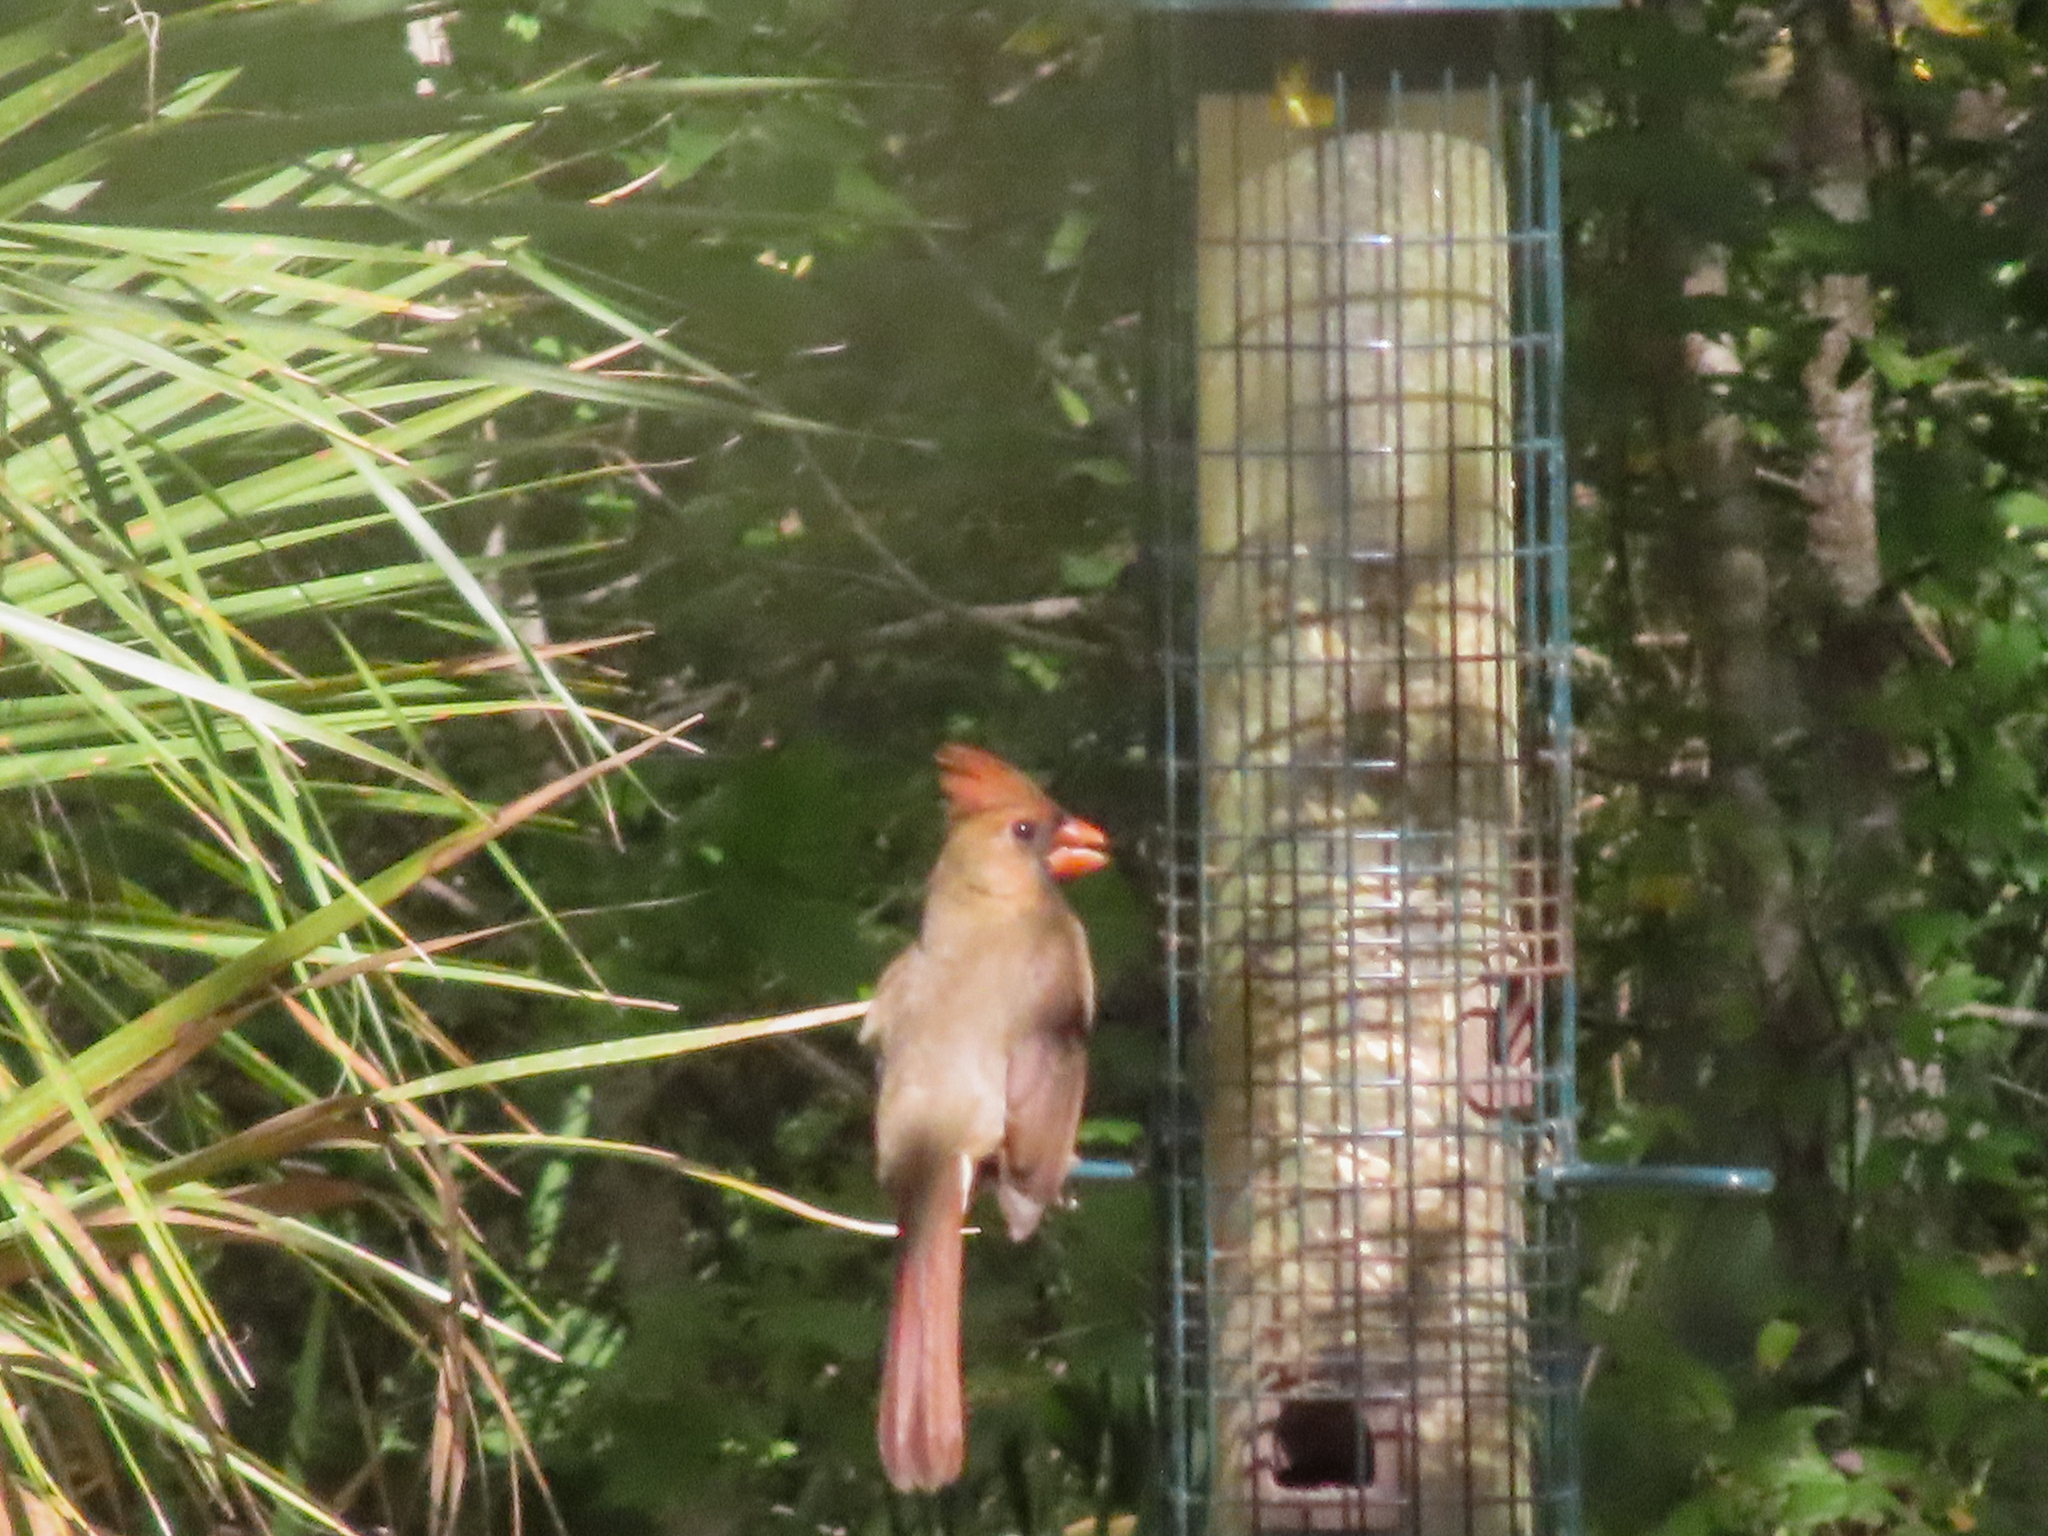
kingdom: Animalia
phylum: Chordata
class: Aves
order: Passeriformes
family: Cardinalidae
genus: Cardinalis
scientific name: Cardinalis cardinalis
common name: Northern cardinal
